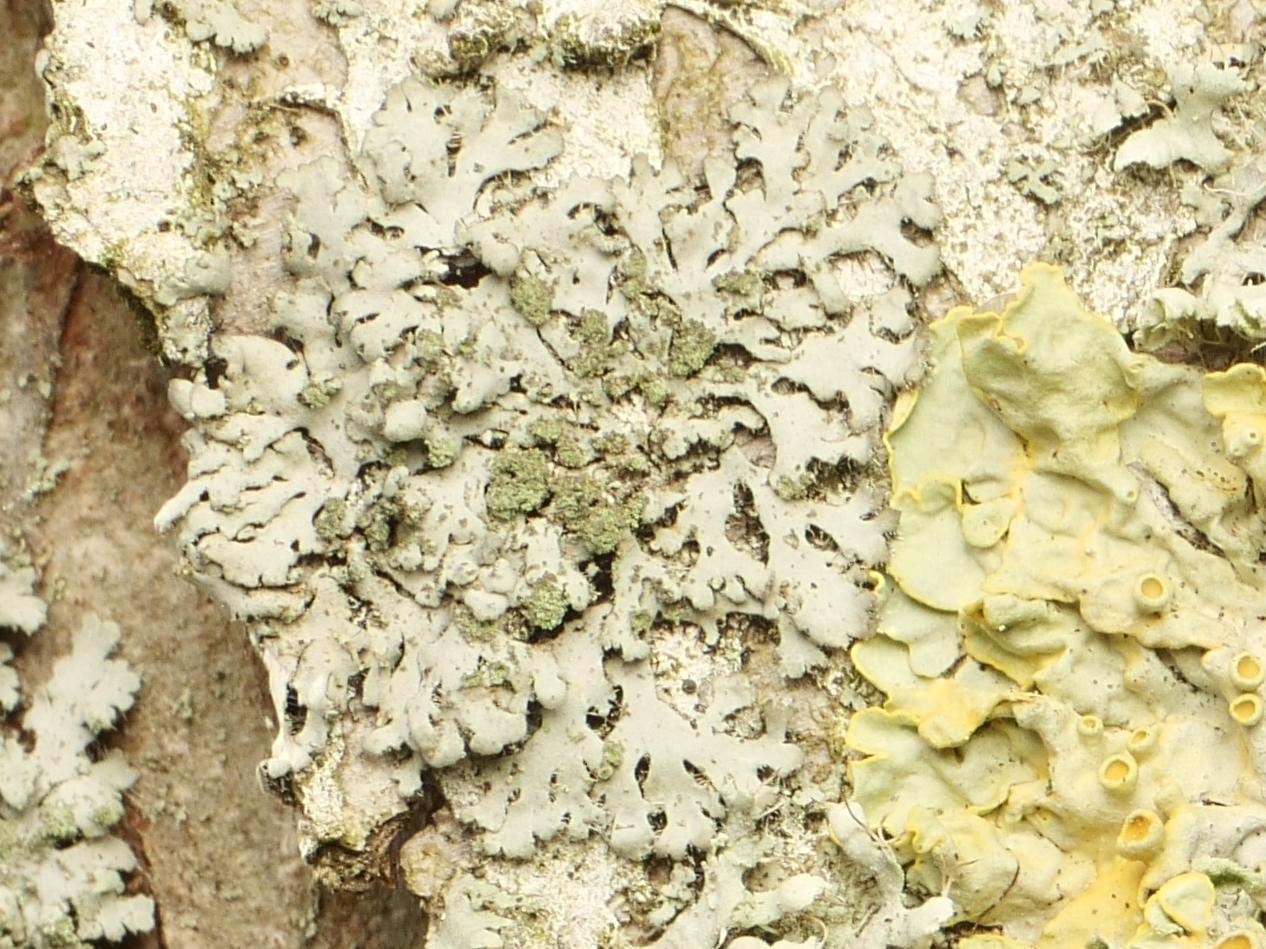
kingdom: Fungi
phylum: Ascomycota
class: Lecanoromycetes
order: Caliciales
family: Physciaceae
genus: Phaeophyscia
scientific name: Phaeophyscia orbicularis
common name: Mealy shadow lichen
